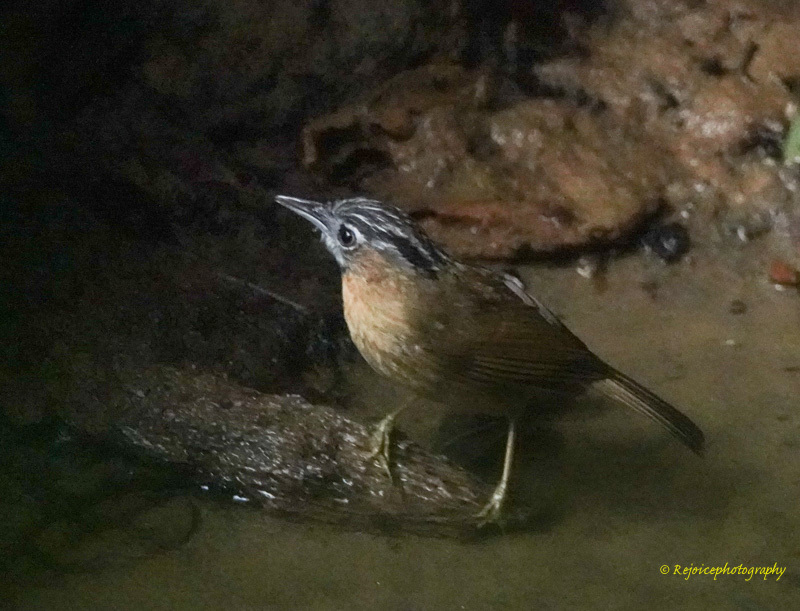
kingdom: Animalia
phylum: Chordata
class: Aves
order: Passeriformes
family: Timaliidae
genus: Stachyris
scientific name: Stachyris nigriceps
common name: Grey-throated babbler
